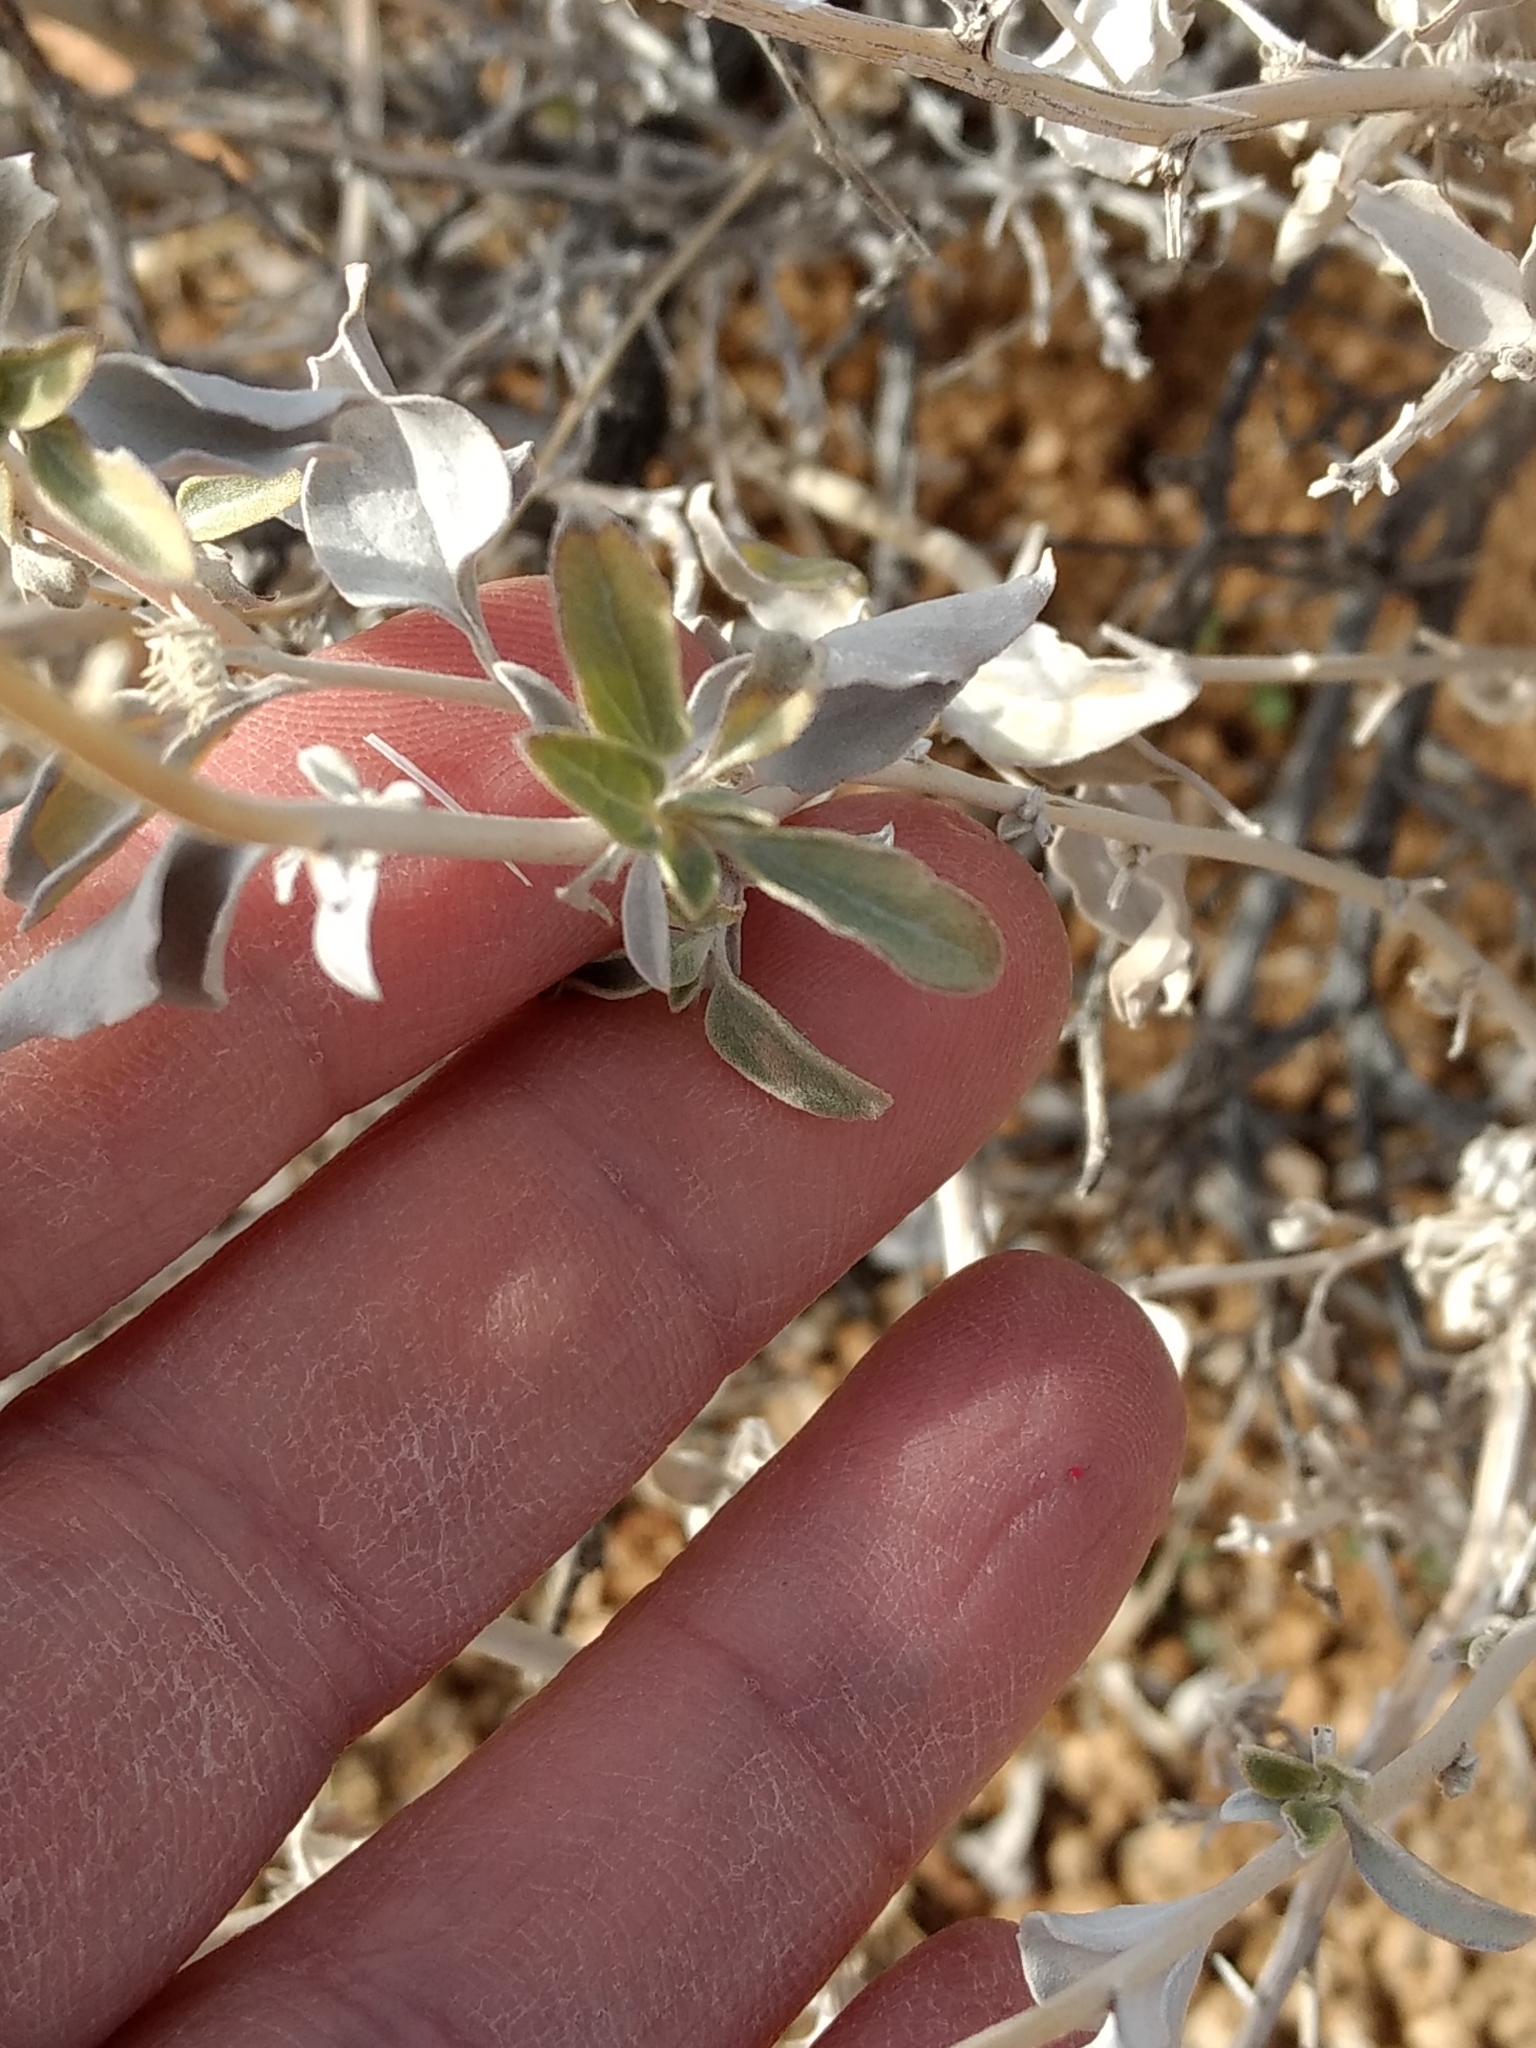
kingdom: Plantae
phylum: Tracheophyta
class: Magnoliopsida
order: Asterales
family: Asteraceae
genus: Encelia
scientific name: Encelia actoni
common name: Acton encelia
